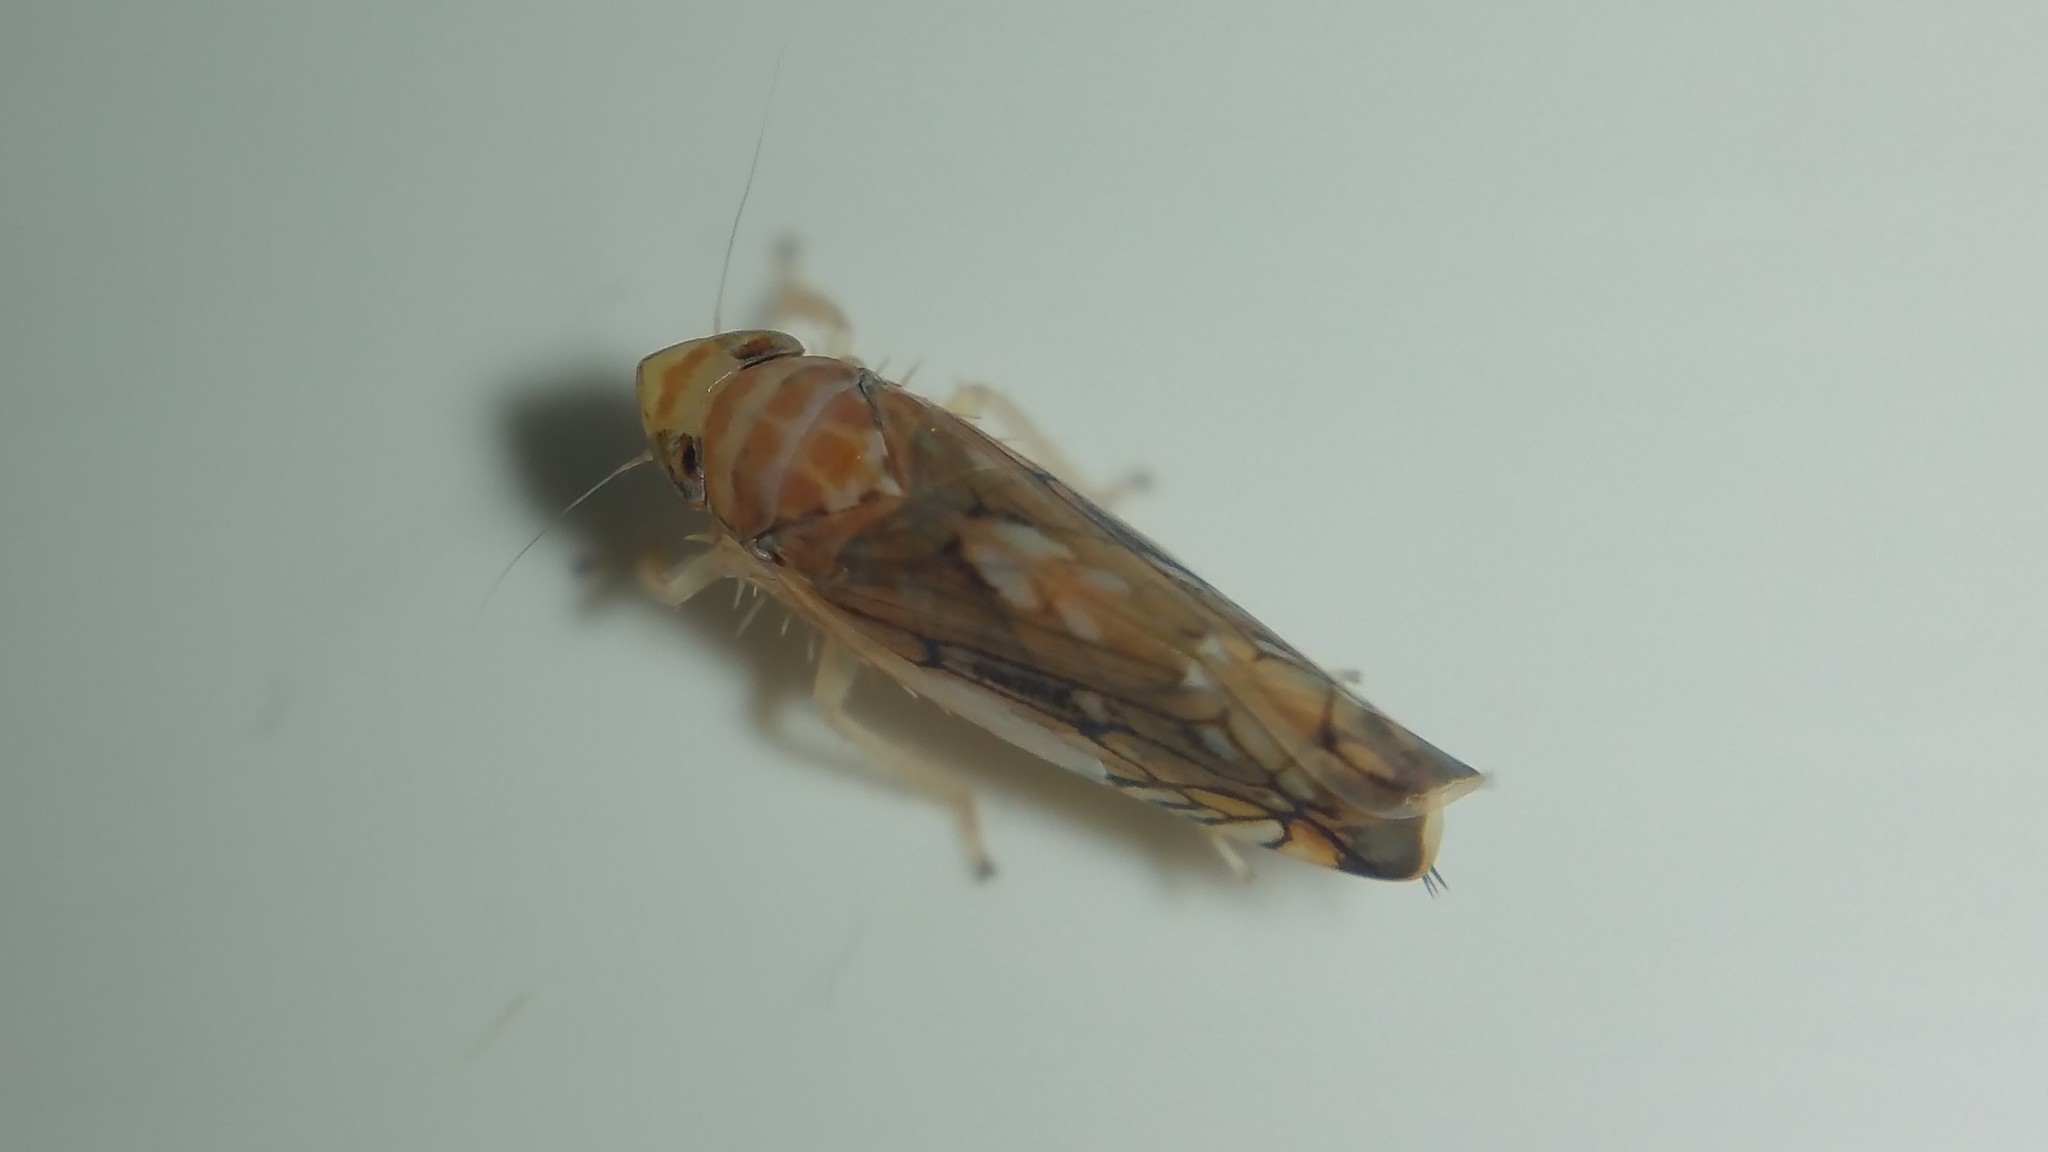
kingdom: Animalia
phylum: Arthropoda
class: Insecta
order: Hemiptera
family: Cicadellidae
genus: Scaphoideus
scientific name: Scaphoideus titanus
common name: American grapevine leafhopper
